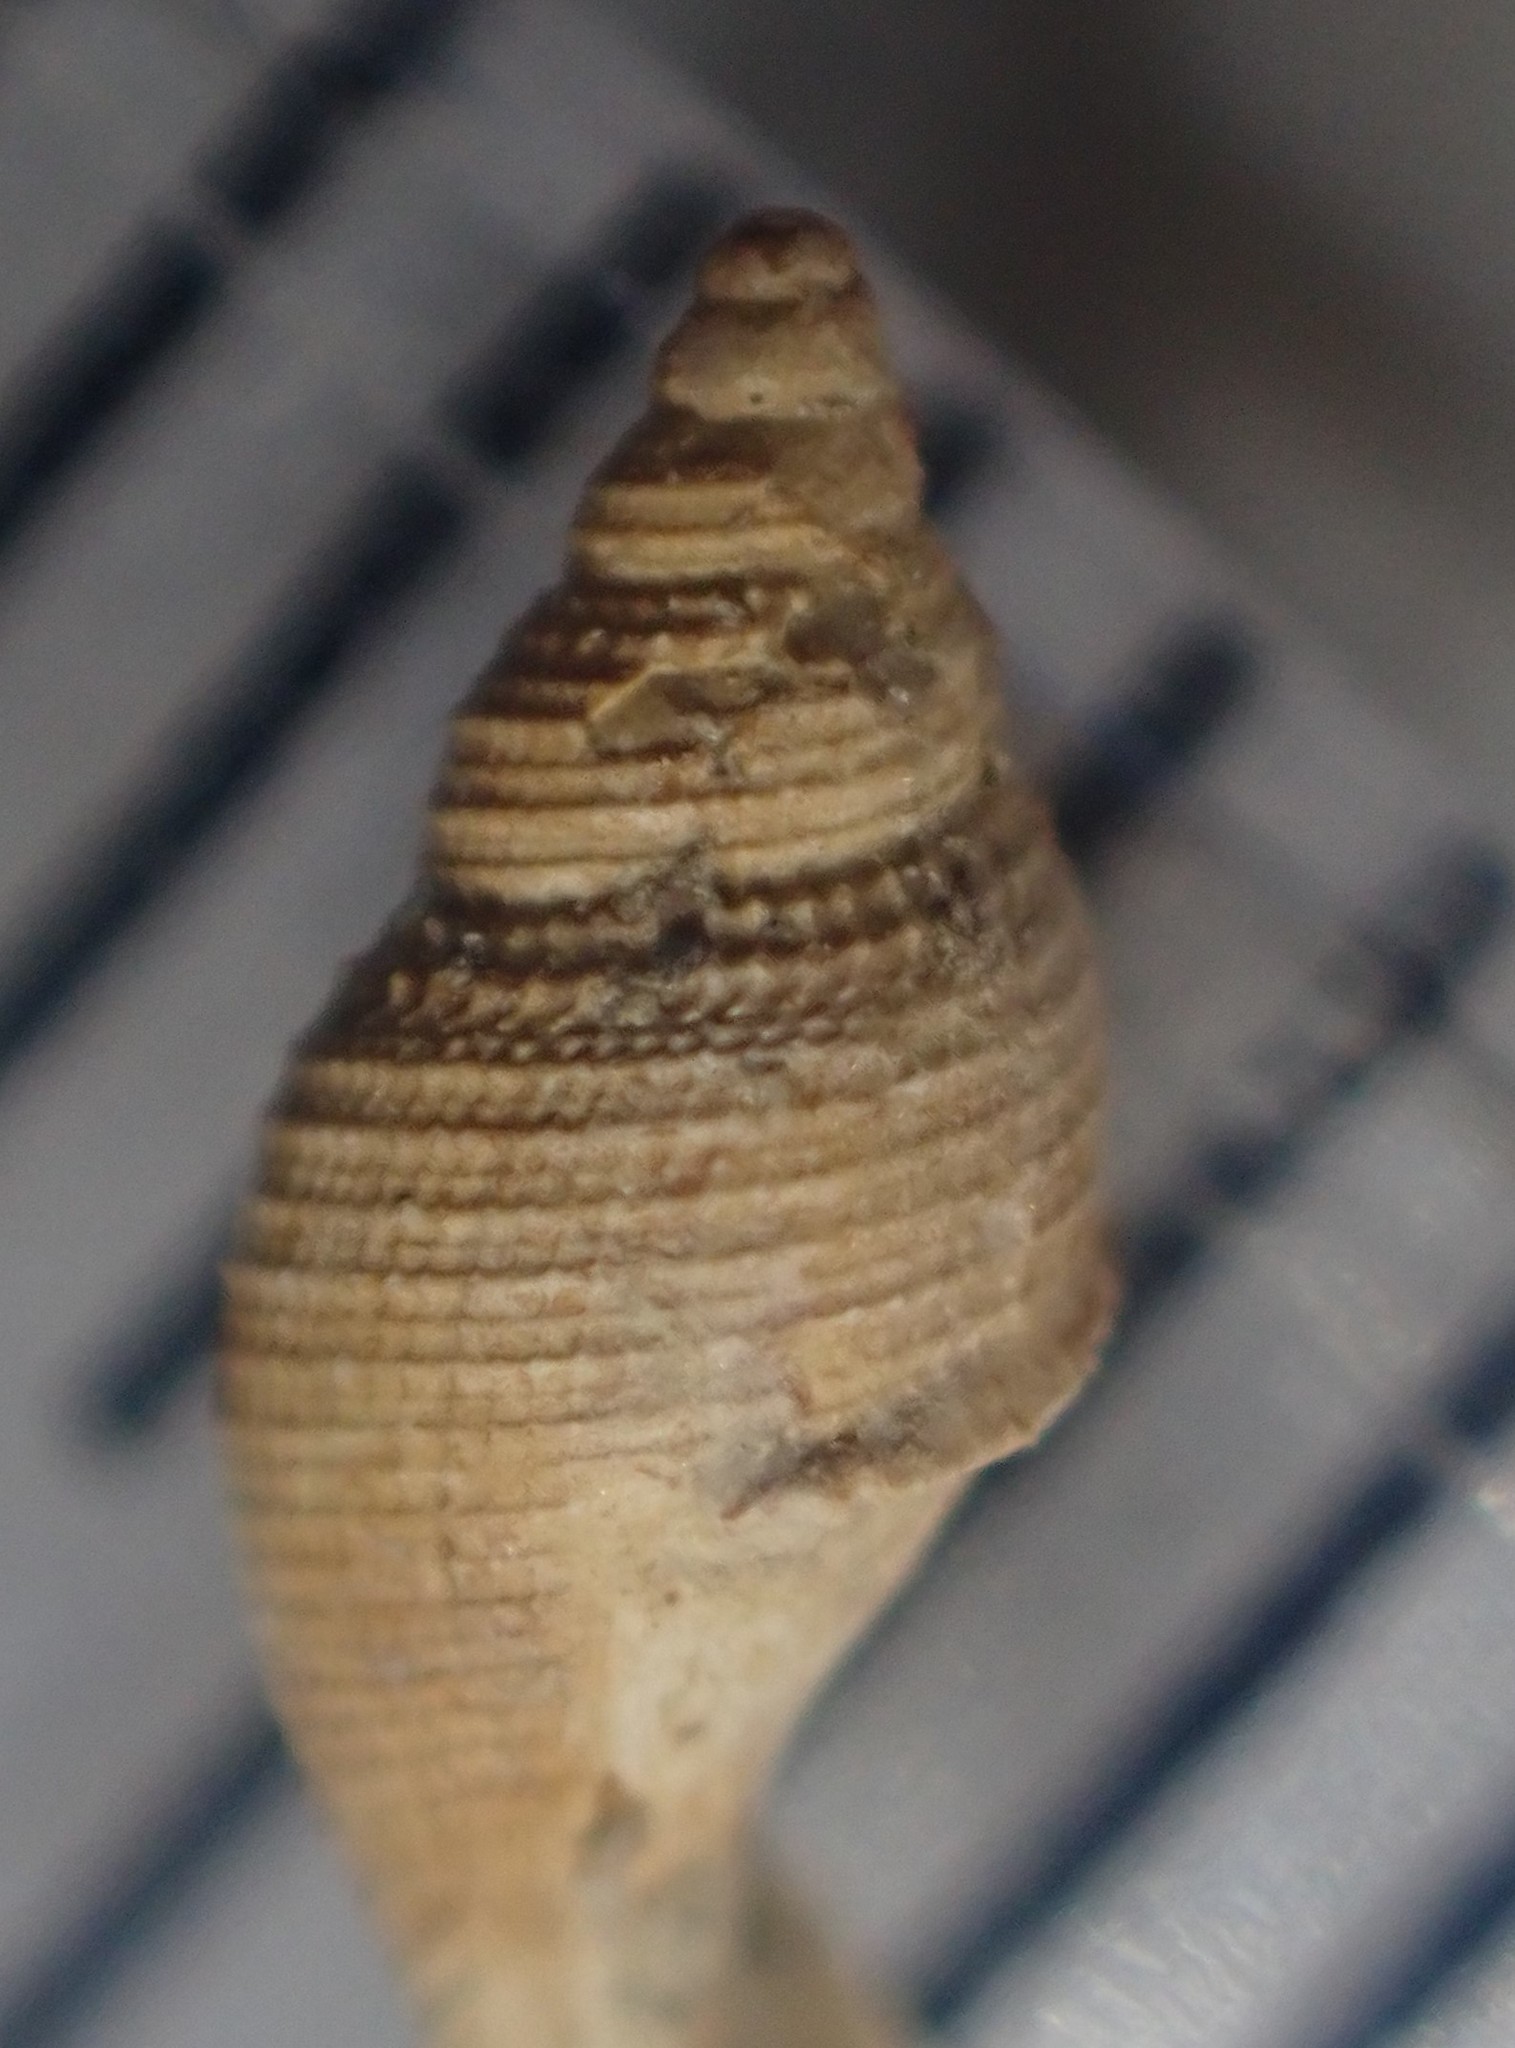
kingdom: Animalia
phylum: Mollusca
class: Gastropoda
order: Neogastropoda
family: Raphitomidae
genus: Daphnella
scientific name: Daphnella cancellata
